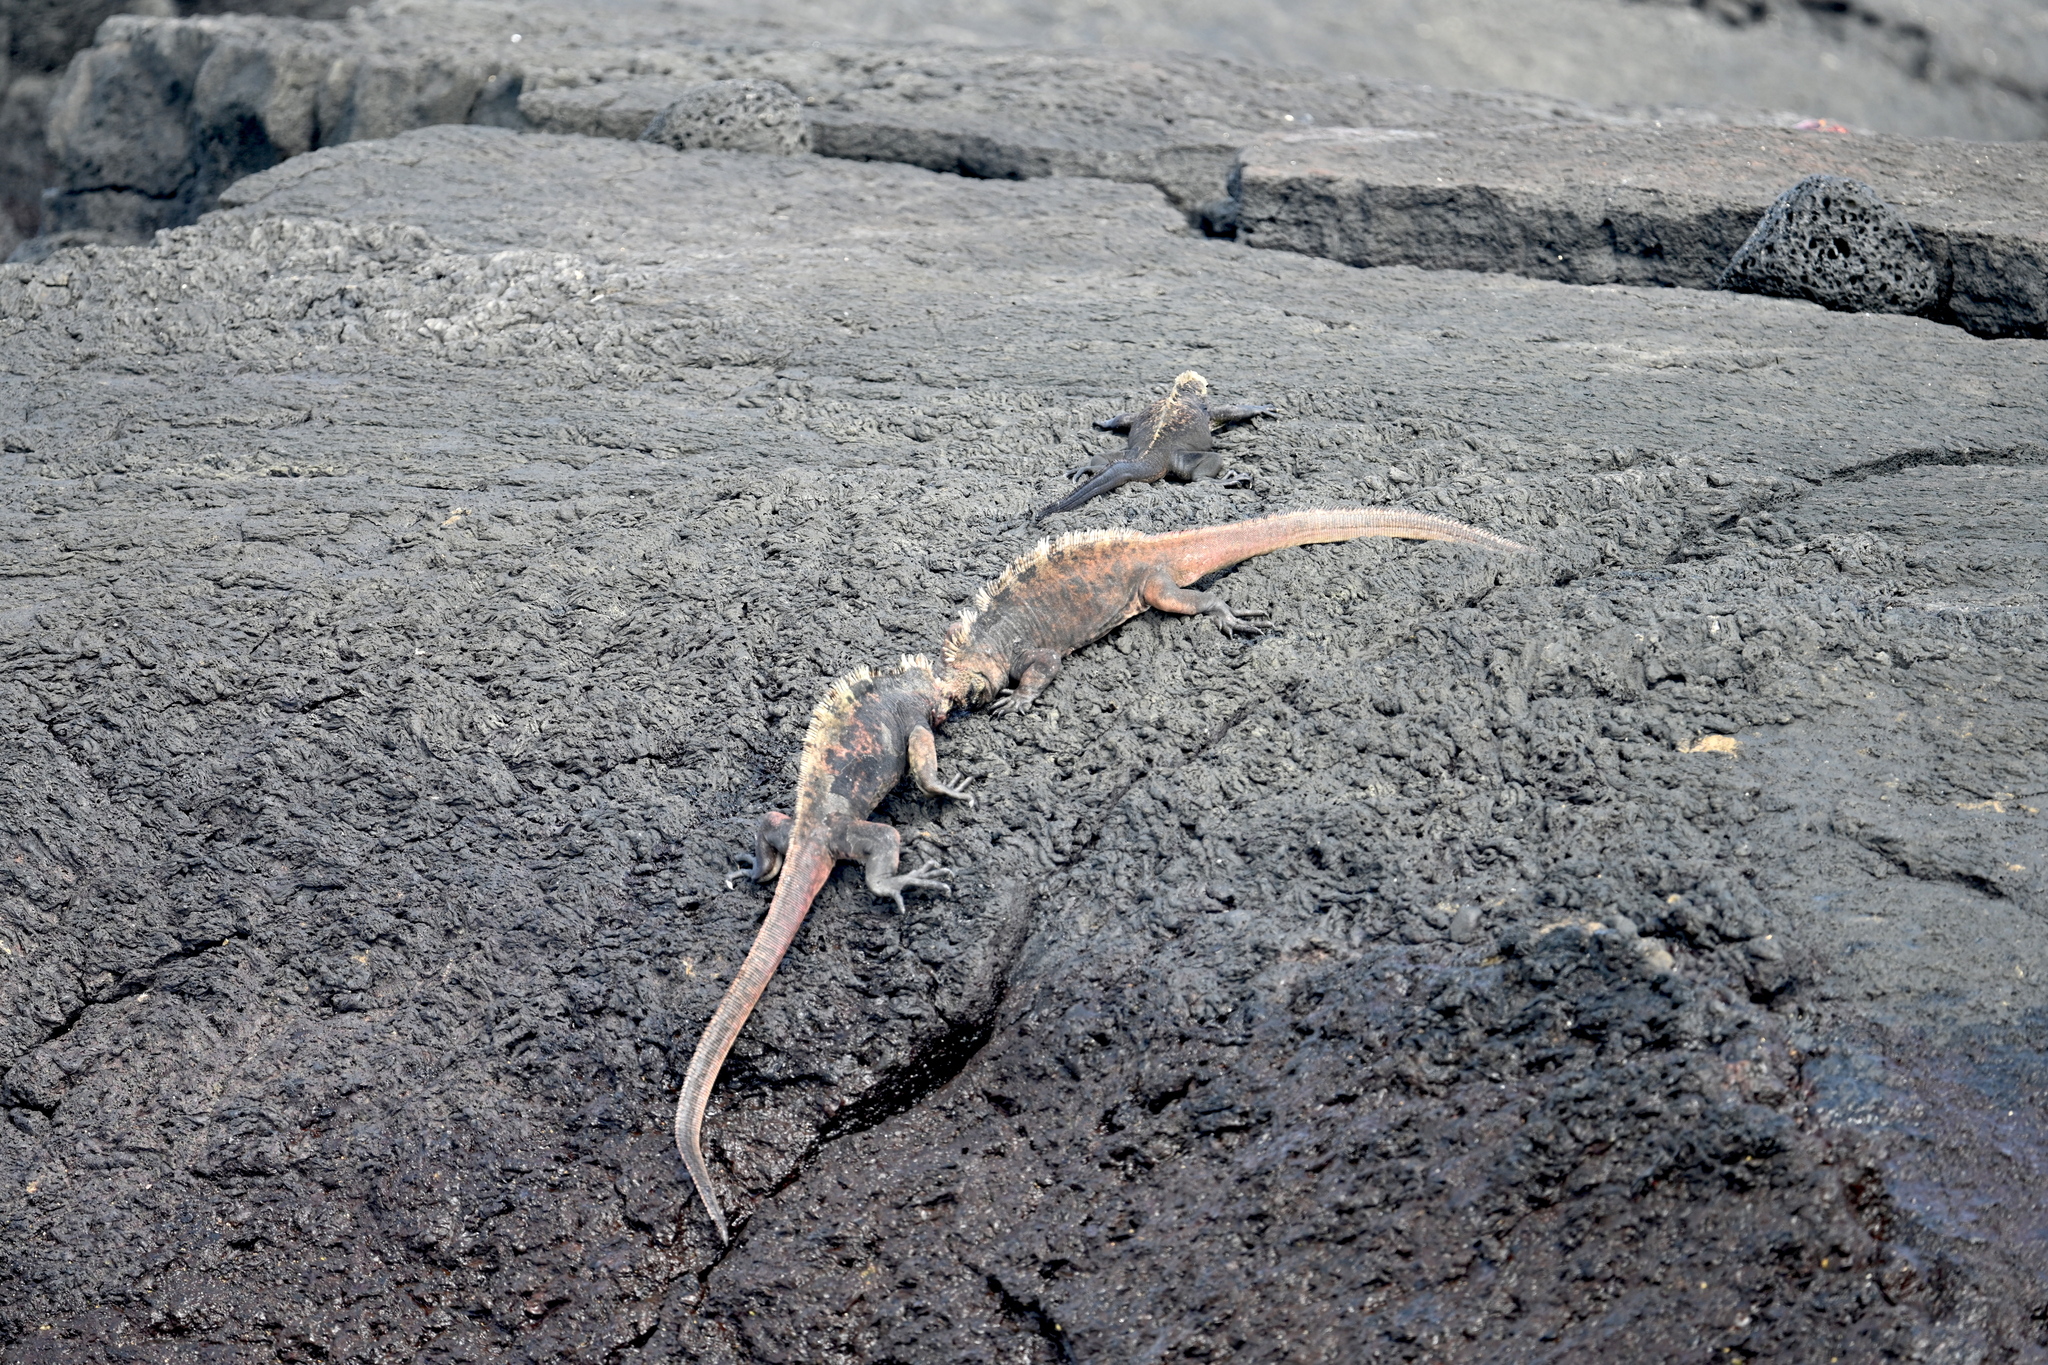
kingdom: Animalia
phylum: Chordata
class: Squamata
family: Iguanidae
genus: Amblyrhynchus
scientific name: Amblyrhynchus cristatus
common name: Marine iguana
